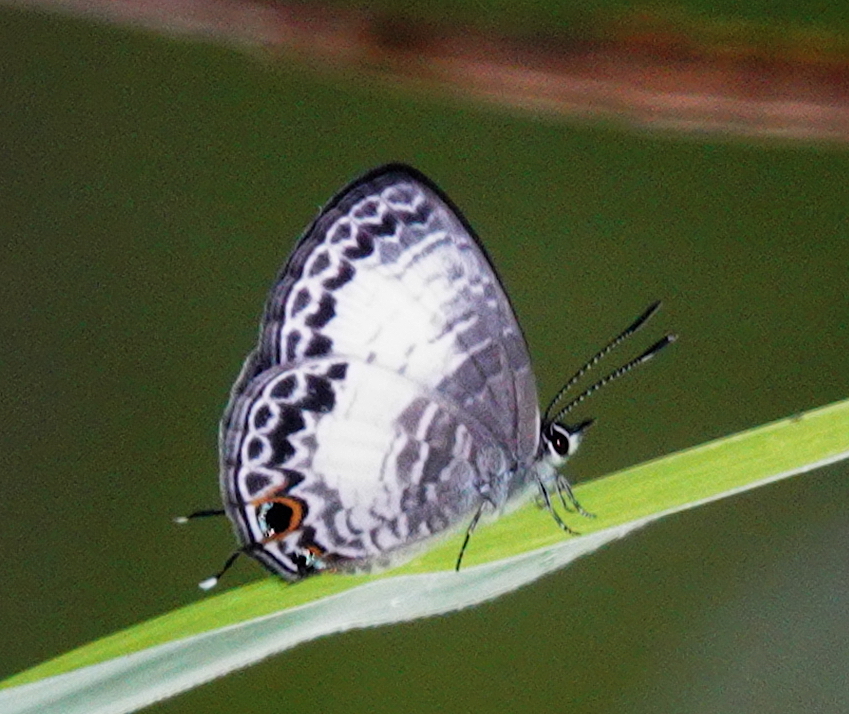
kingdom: Animalia
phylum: Arthropoda
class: Insecta
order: Lepidoptera
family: Lycaenidae
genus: Nacaduba
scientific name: Nacaduba kurava
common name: Transparent 6-line blue
